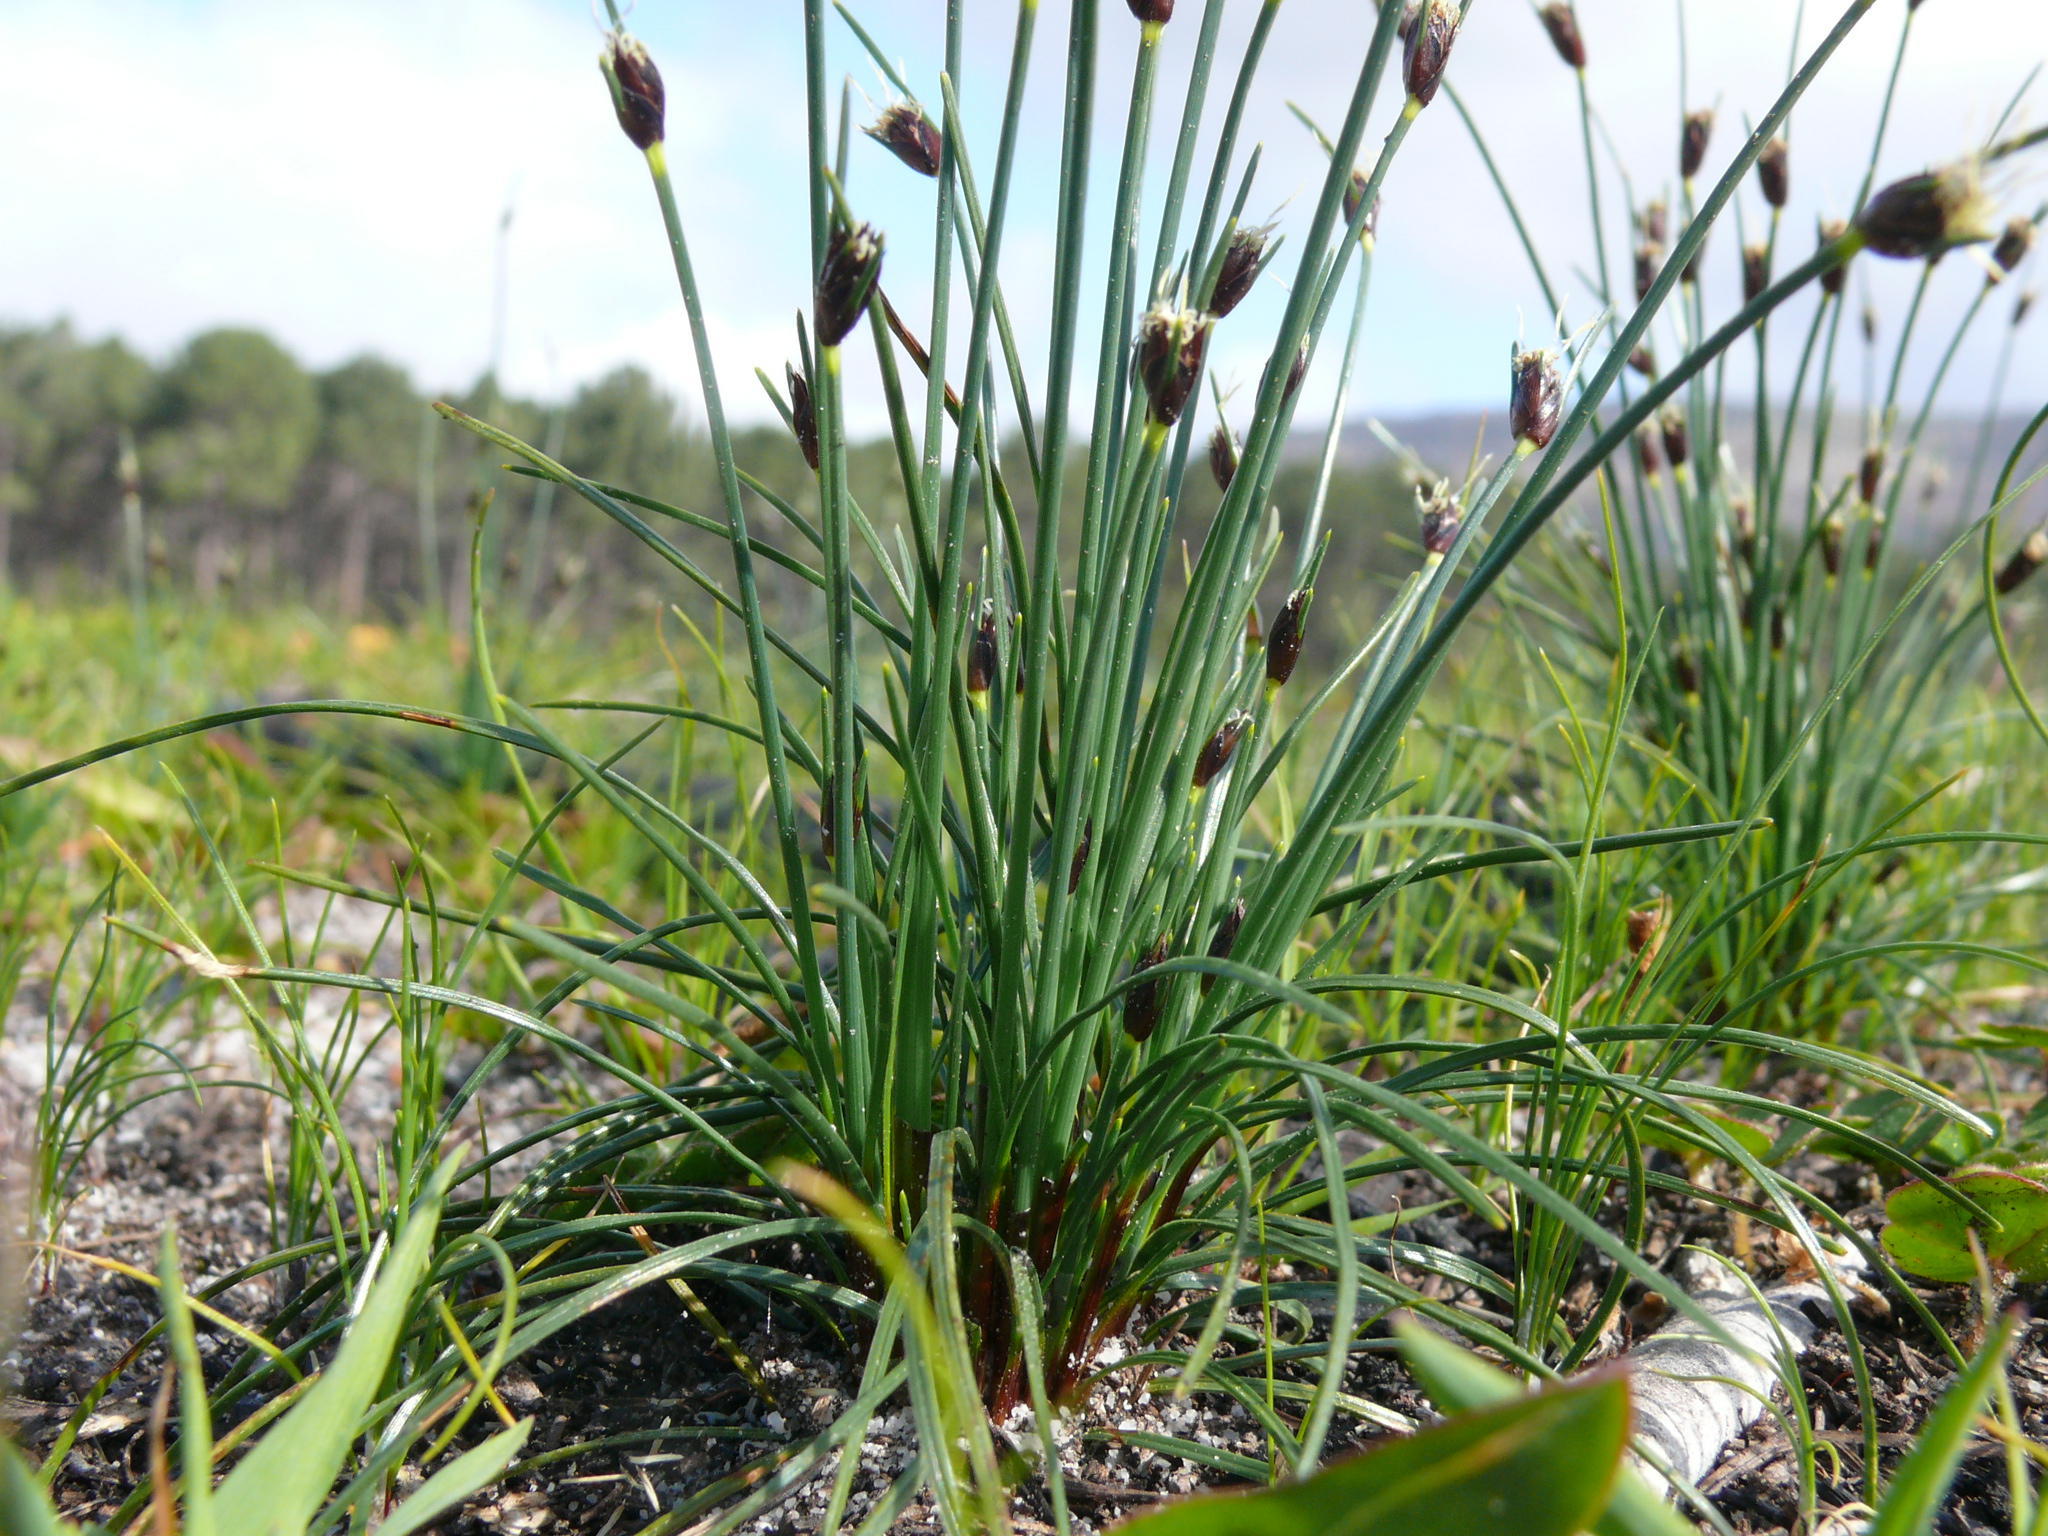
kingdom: Plantae
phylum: Tracheophyta
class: Liliopsida
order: Poales
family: Cyperaceae
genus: Ficinia
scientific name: Ficinia dunensis
